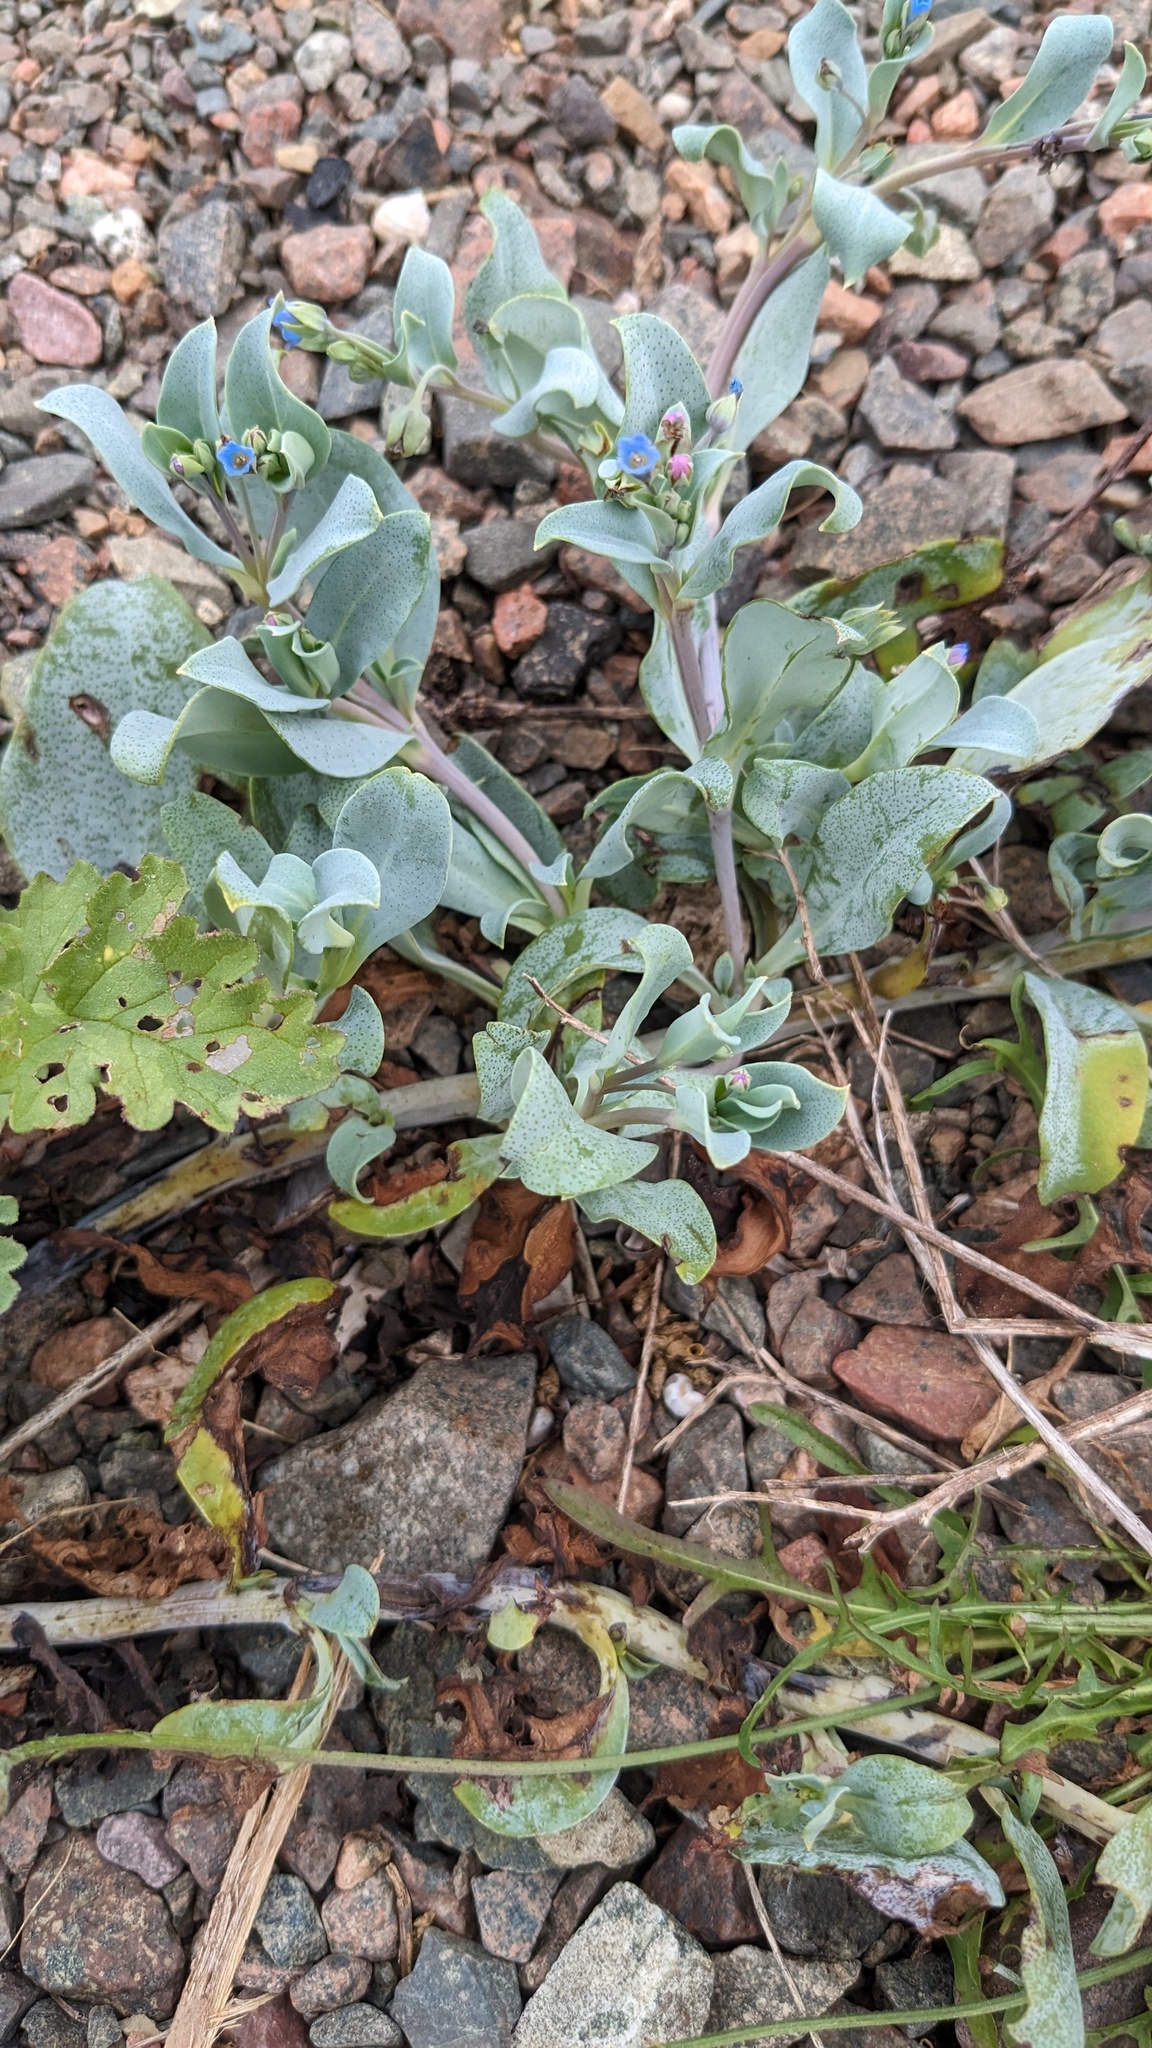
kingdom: Plantae
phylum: Tracheophyta
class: Magnoliopsida
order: Boraginales
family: Boraginaceae
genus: Mertensia
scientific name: Mertensia maritima
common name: Oysterplant
